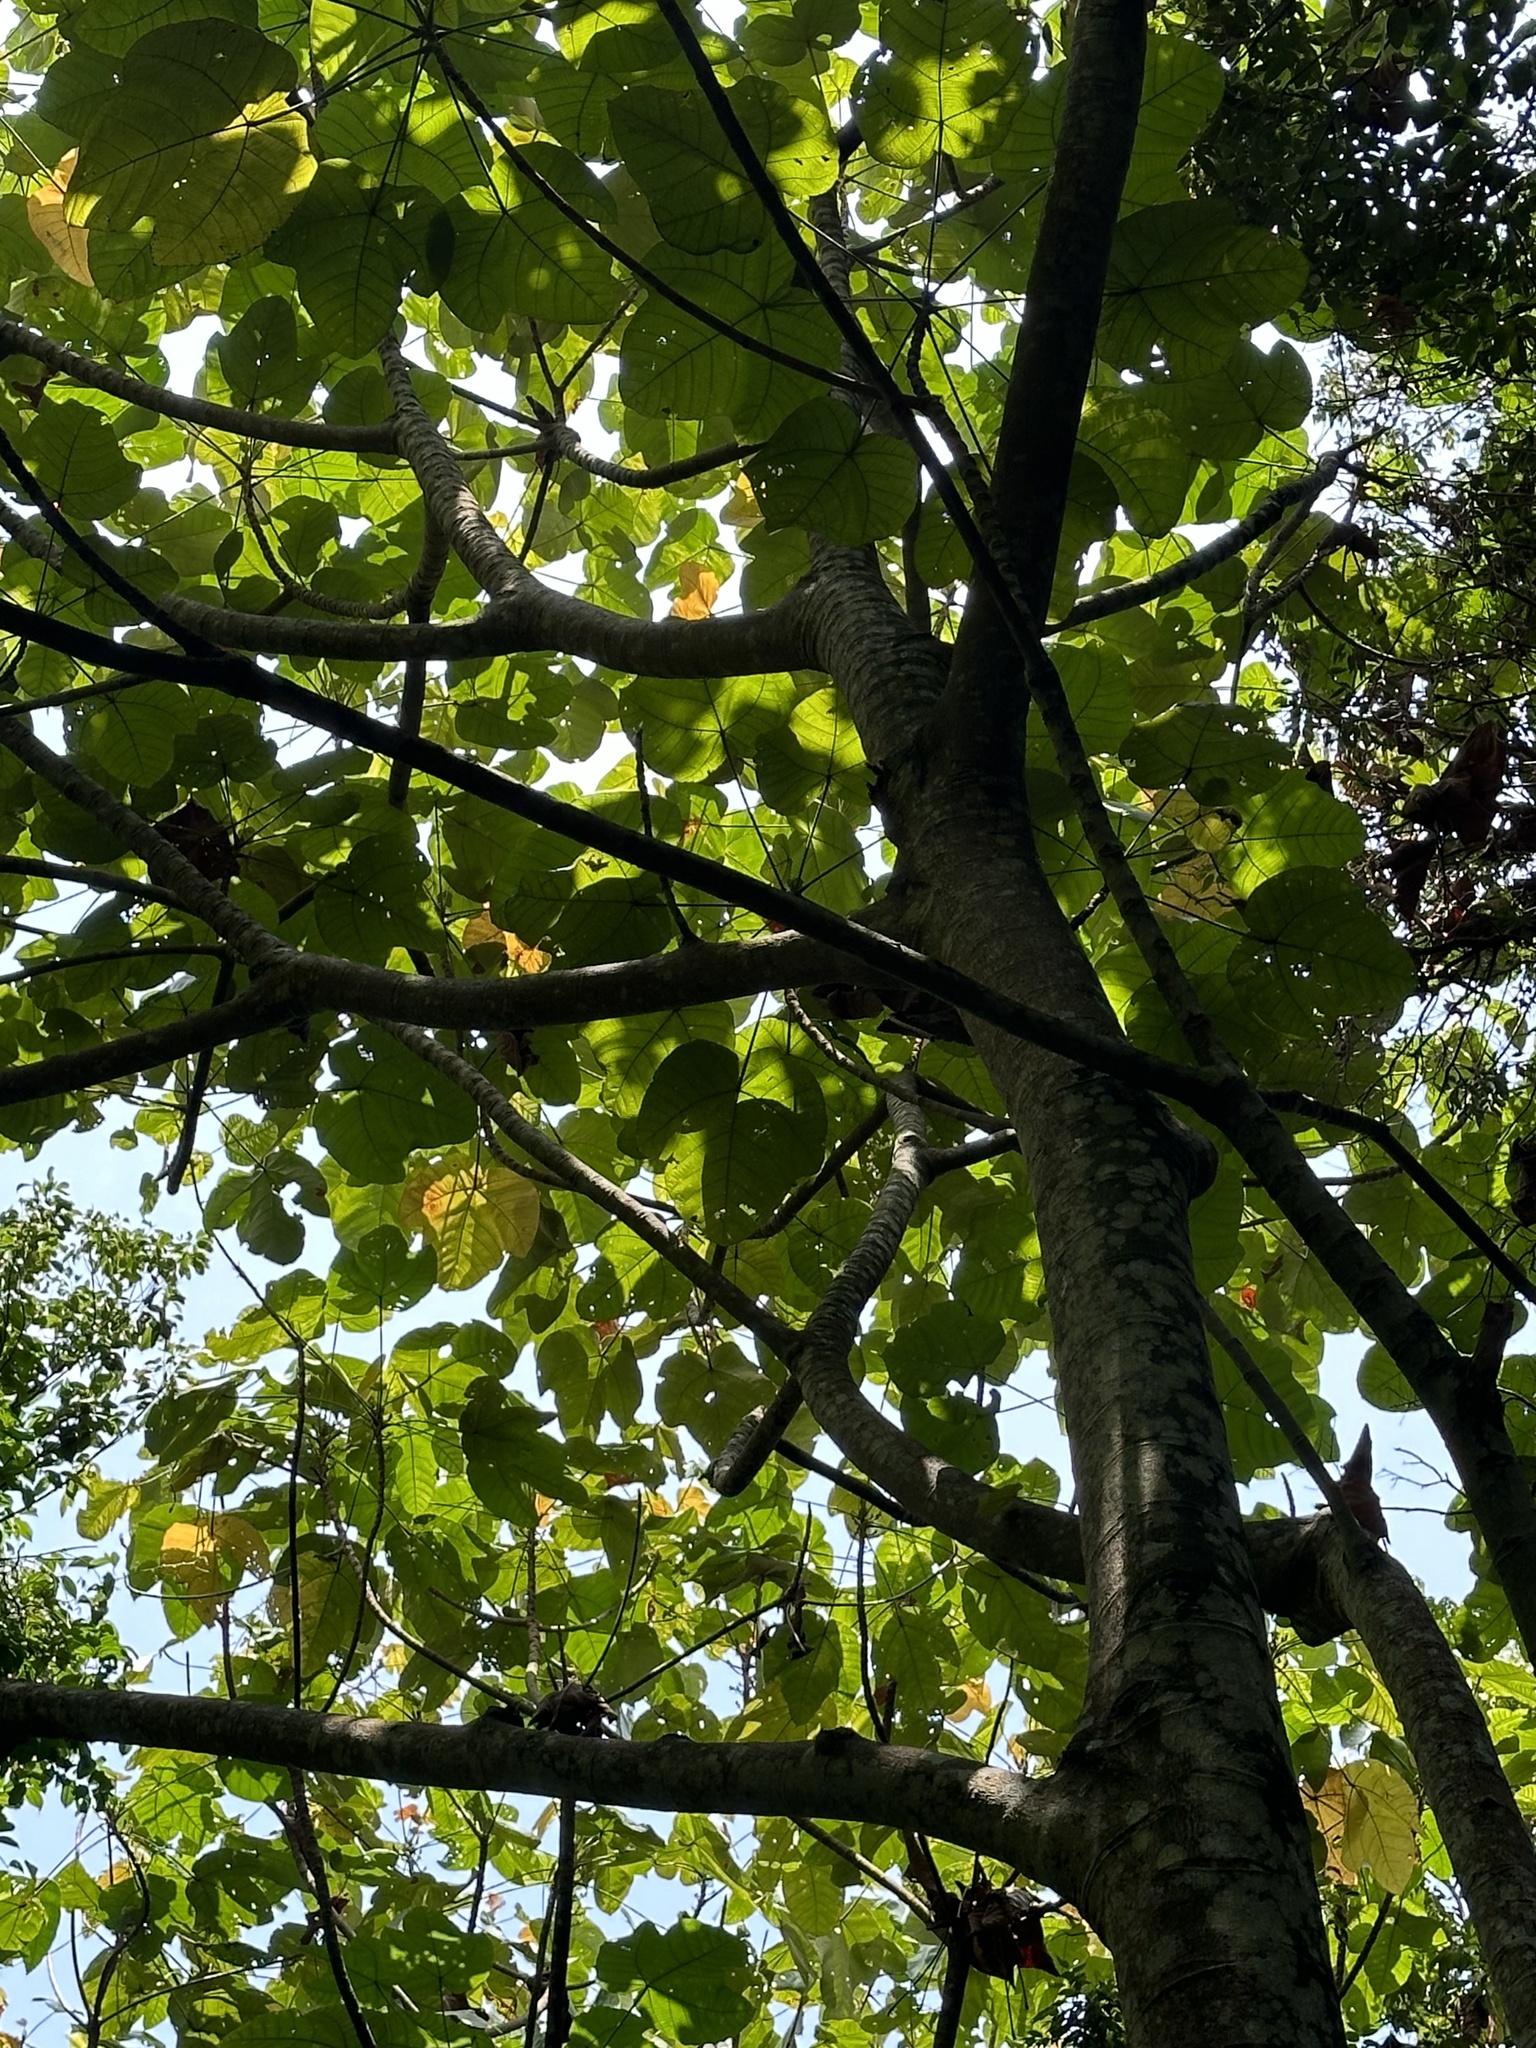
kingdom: Plantae
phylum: Tracheophyta
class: Magnoliopsida
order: Malpighiales
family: Euphorbiaceae
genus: Macaranga
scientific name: Macaranga gigantea
